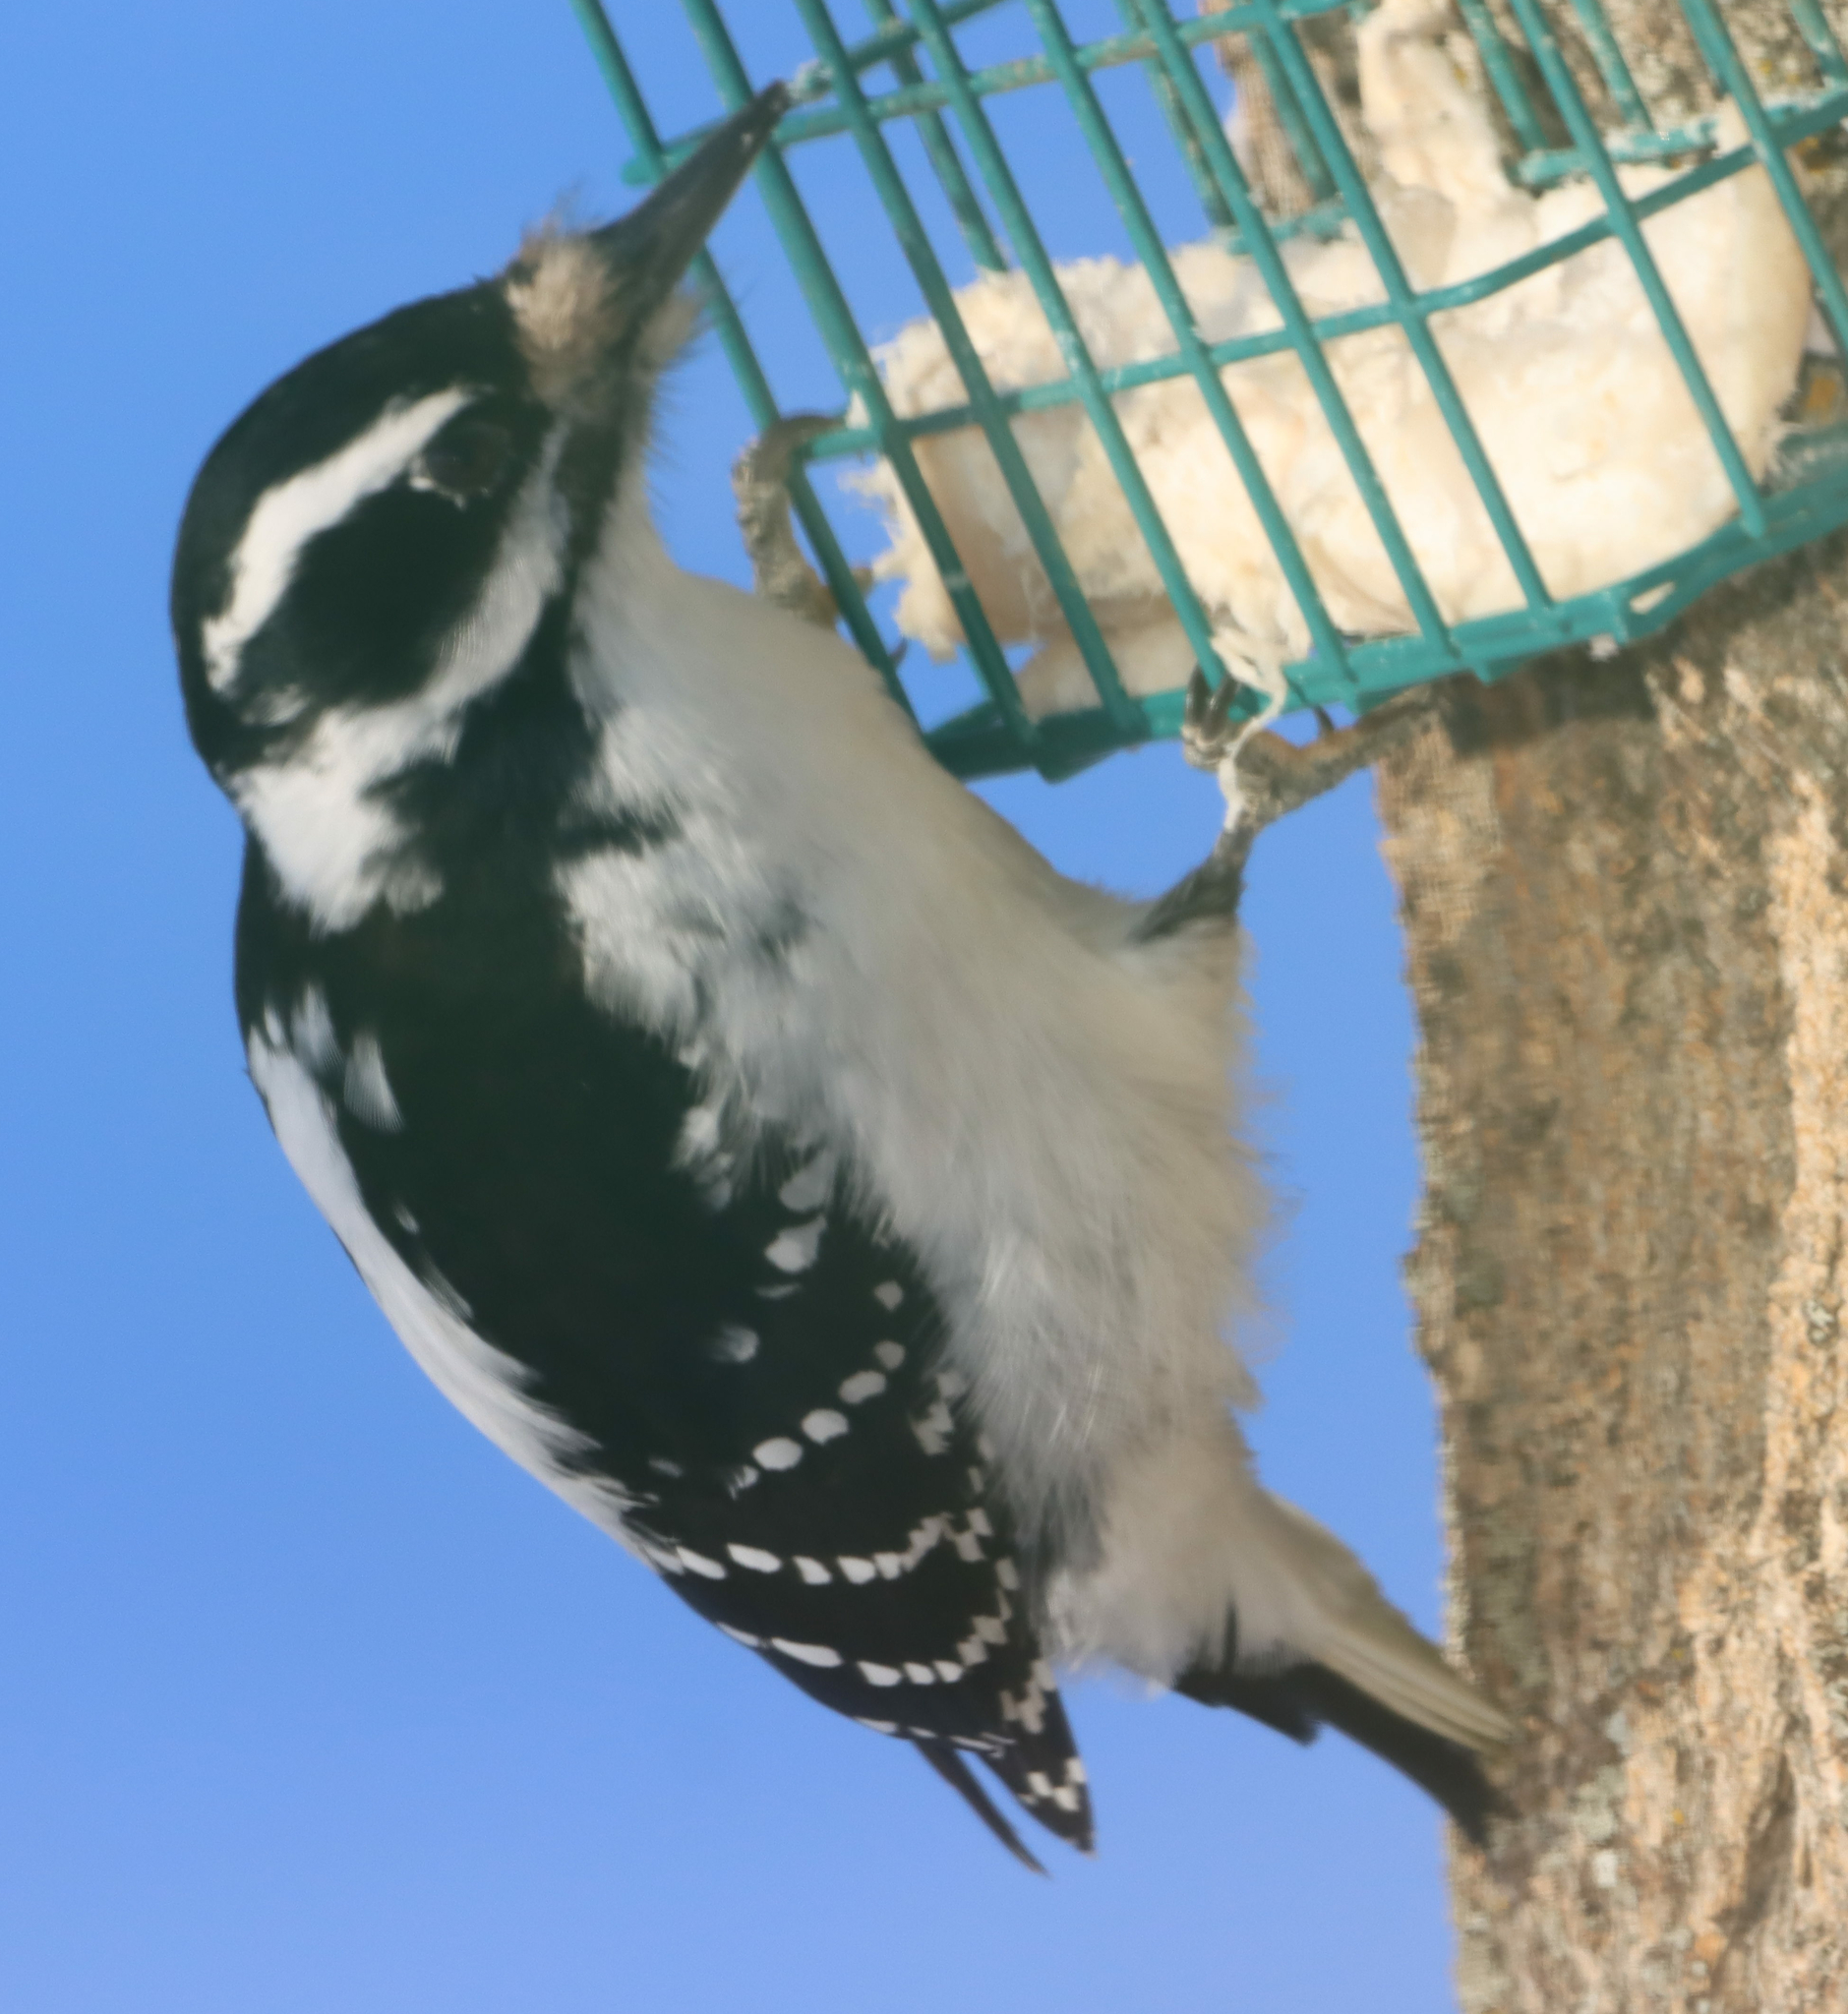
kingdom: Animalia
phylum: Chordata
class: Aves
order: Piciformes
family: Picidae
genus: Leuconotopicus
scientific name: Leuconotopicus villosus
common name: Hairy woodpecker
